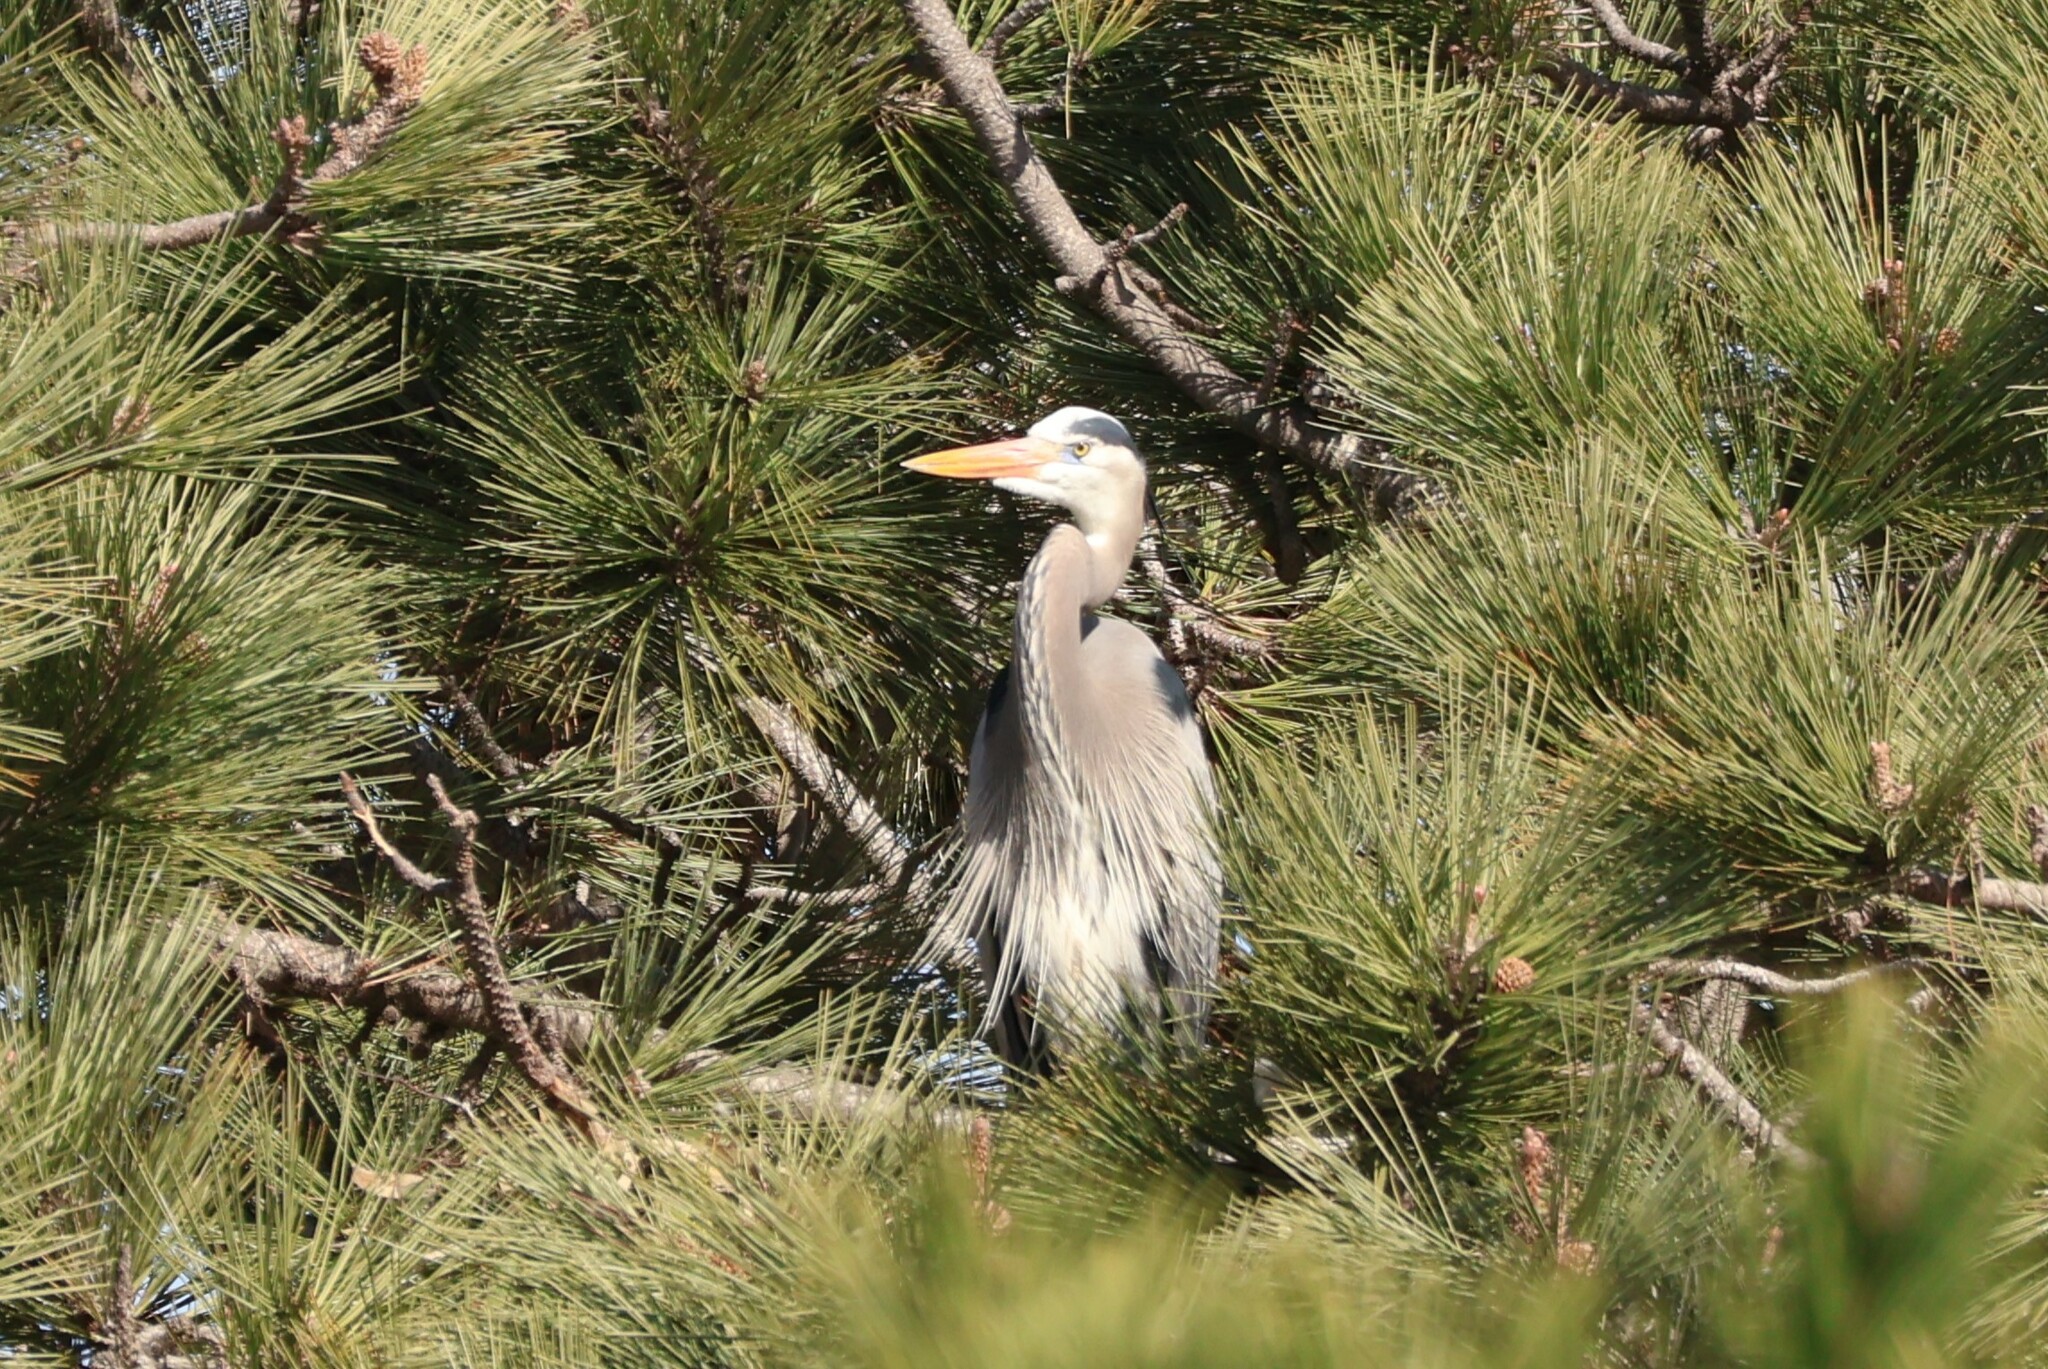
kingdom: Animalia
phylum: Chordata
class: Aves
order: Pelecaniformes
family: Ardeidae
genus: Ardea
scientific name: Ardea herodias
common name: Great blue heron
